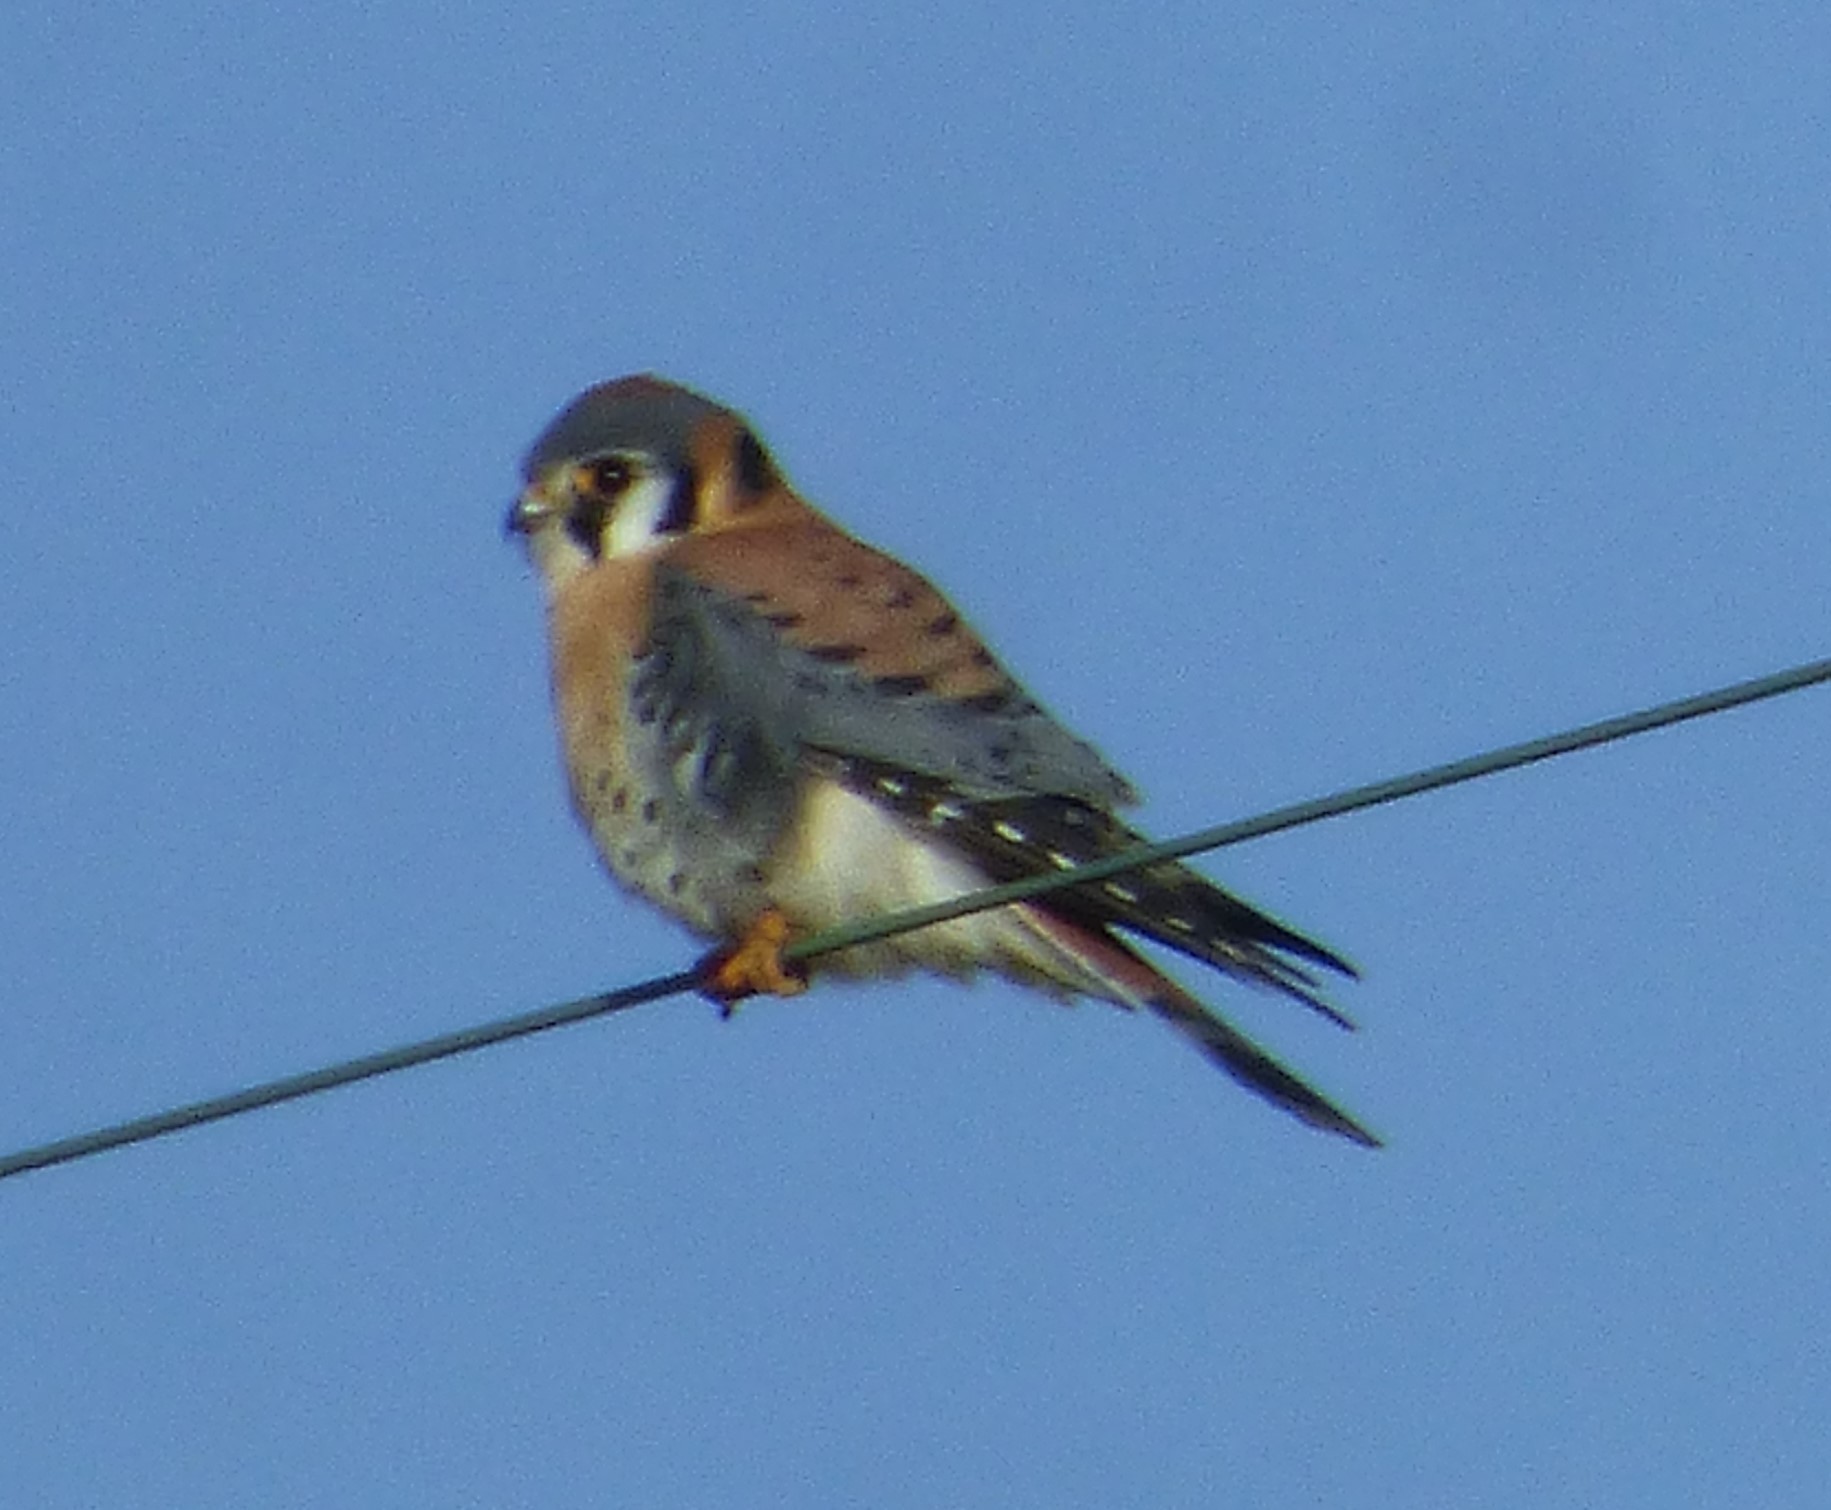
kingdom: Animalia
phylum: Chordata
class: Aves
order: Falconiformes
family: Falconidae
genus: Falco
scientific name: Falco sparverius
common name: American kestrel
